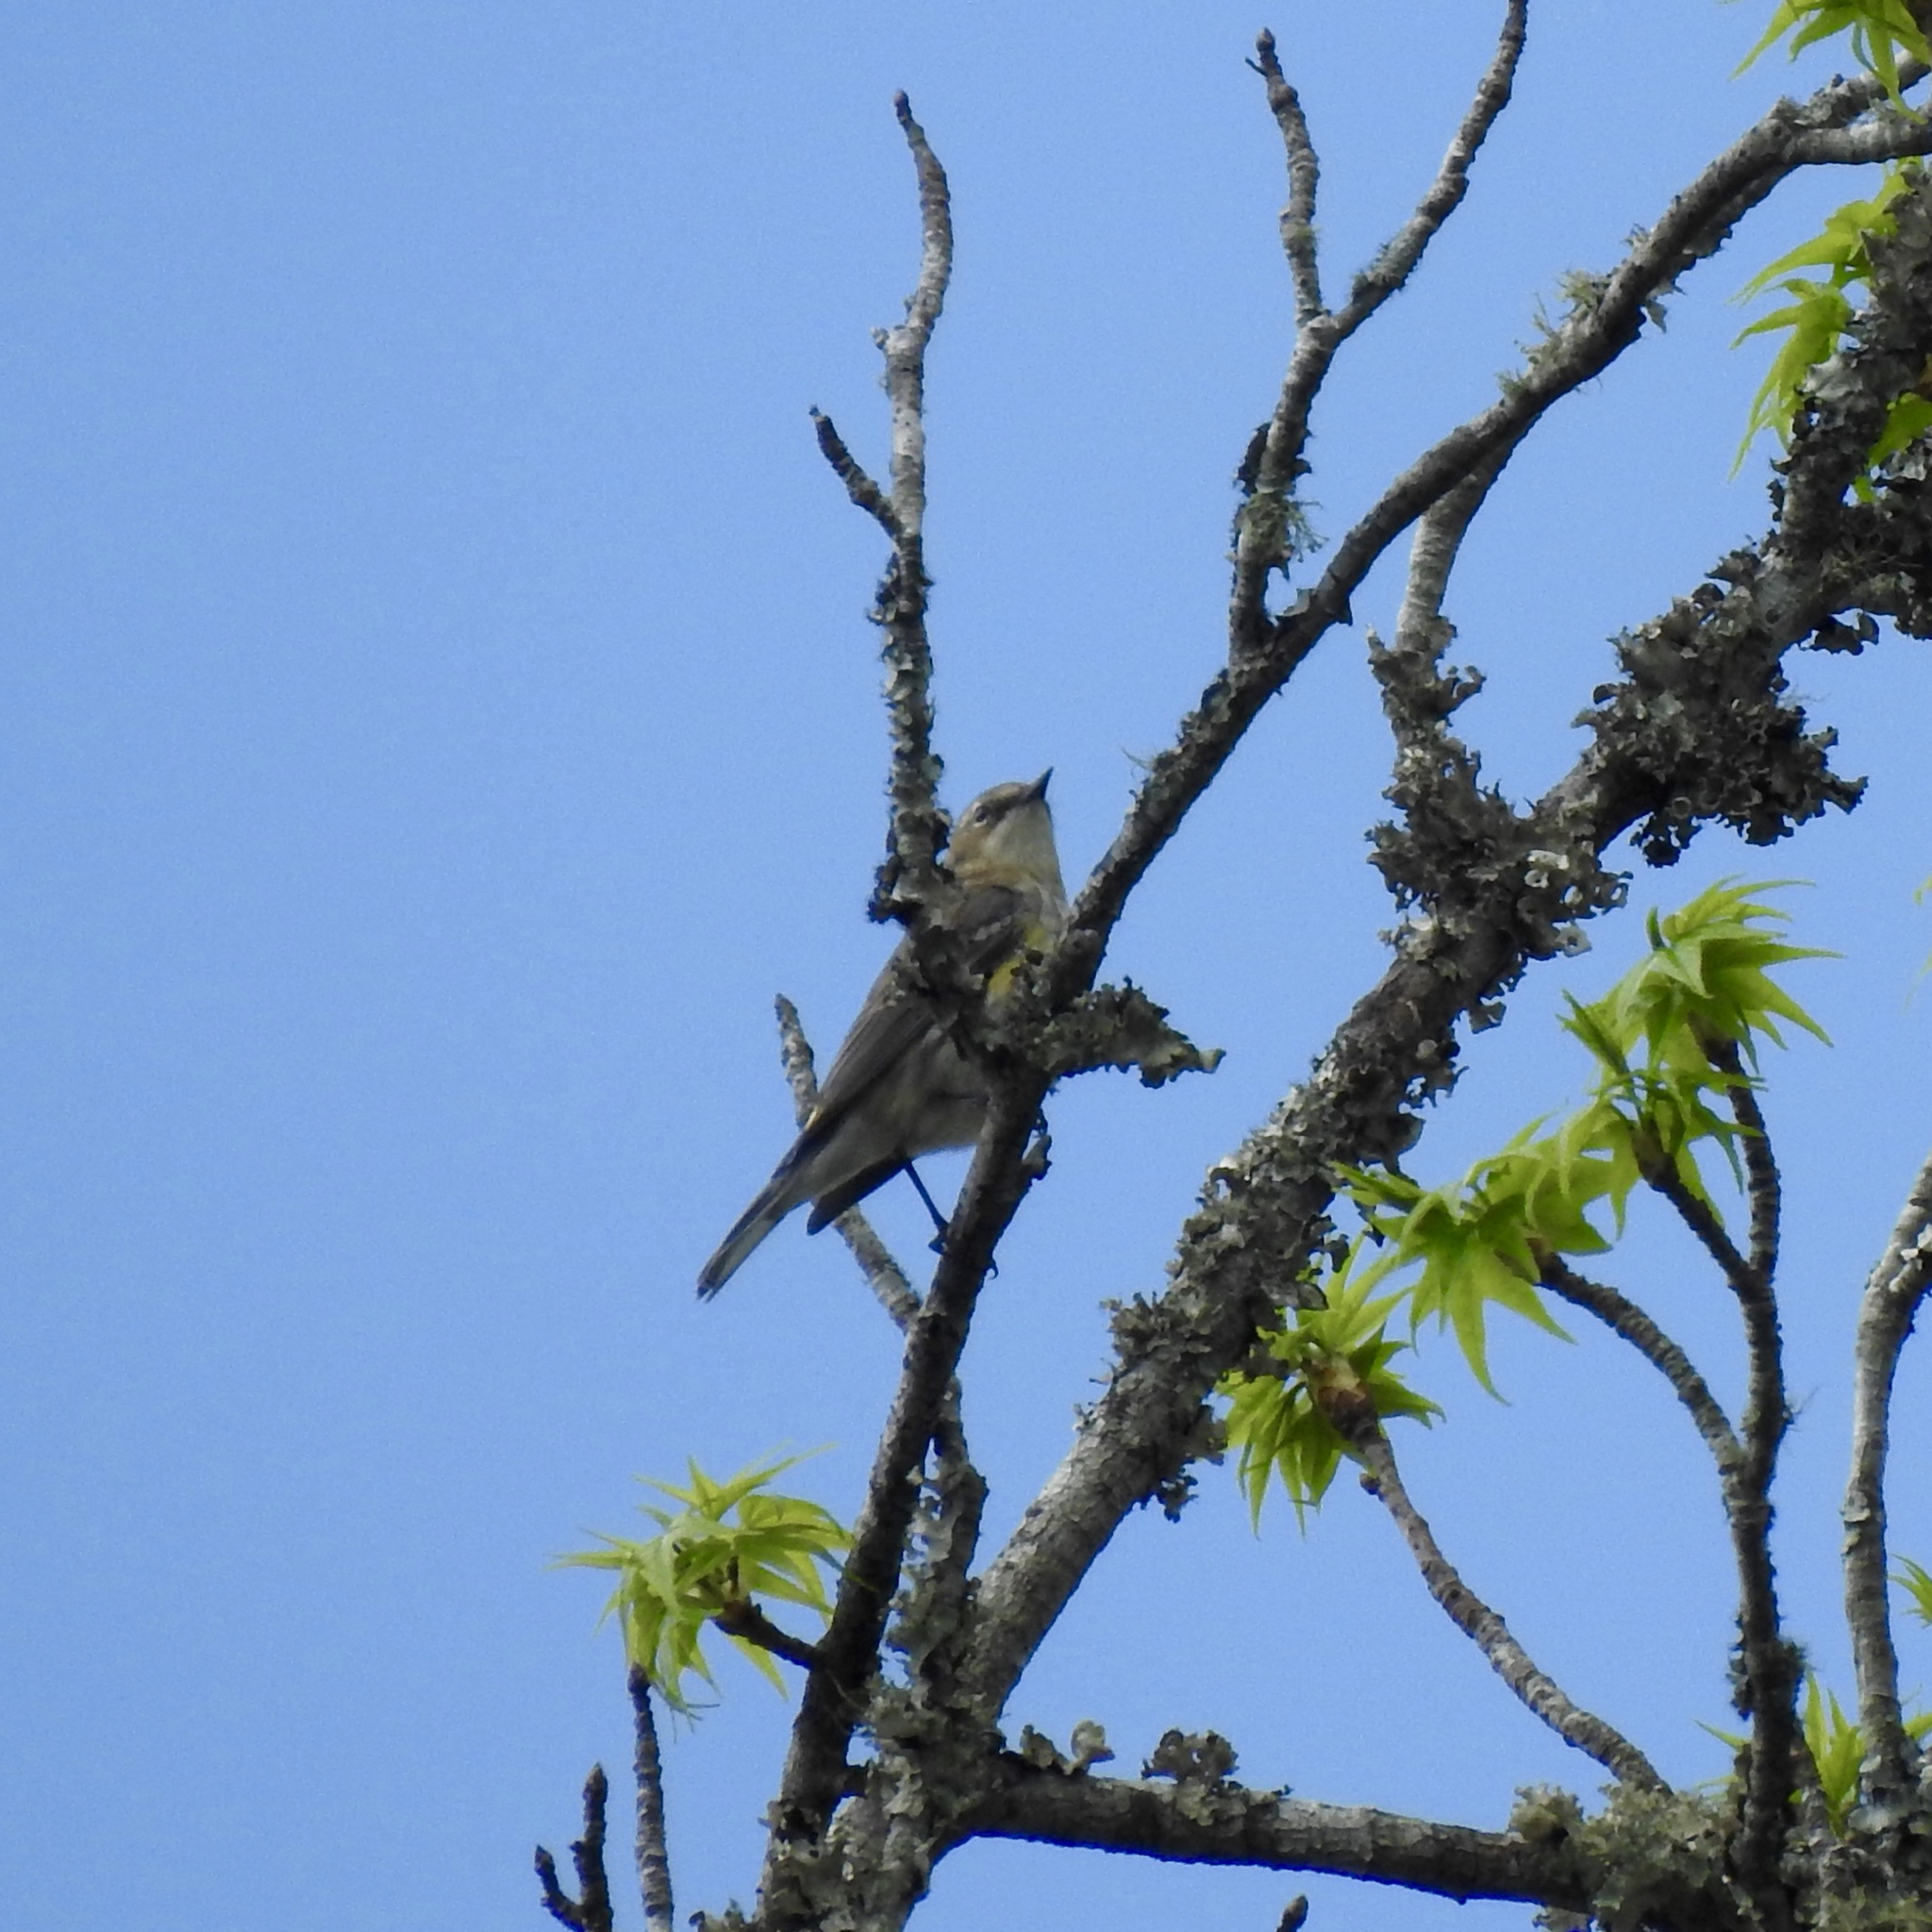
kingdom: Animalia
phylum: Chordata
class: Aves
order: Passeriformes
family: Parulidae
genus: Setophaga
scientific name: Setophaga coronata
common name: Myrtle warbler
